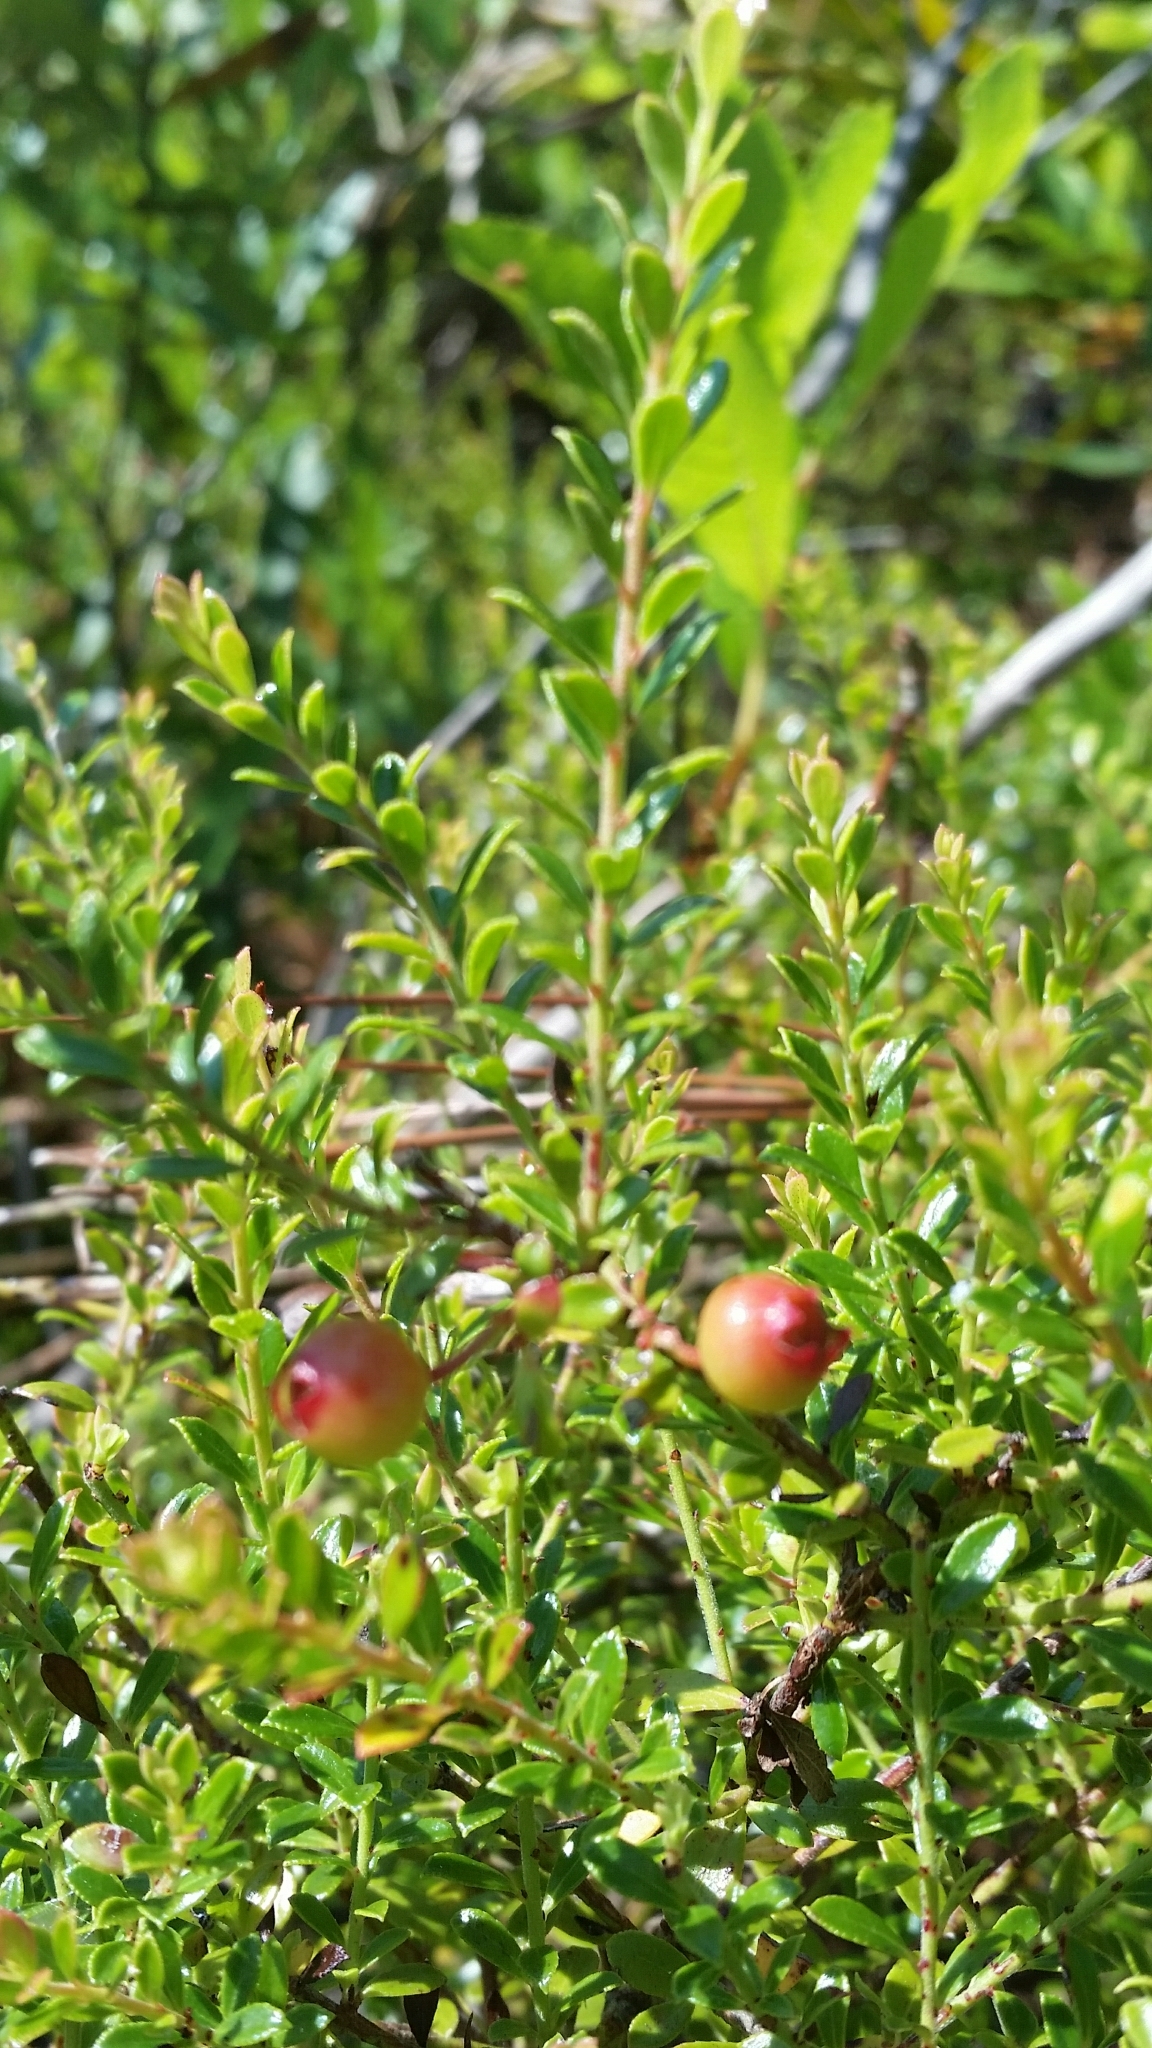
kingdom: Plantae
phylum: Tracheophyta
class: Magnoliopsida
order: Ericales
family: Ericaceae
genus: Vaccinium
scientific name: Vaccinium myrsinites
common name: Evergreen blueberry
